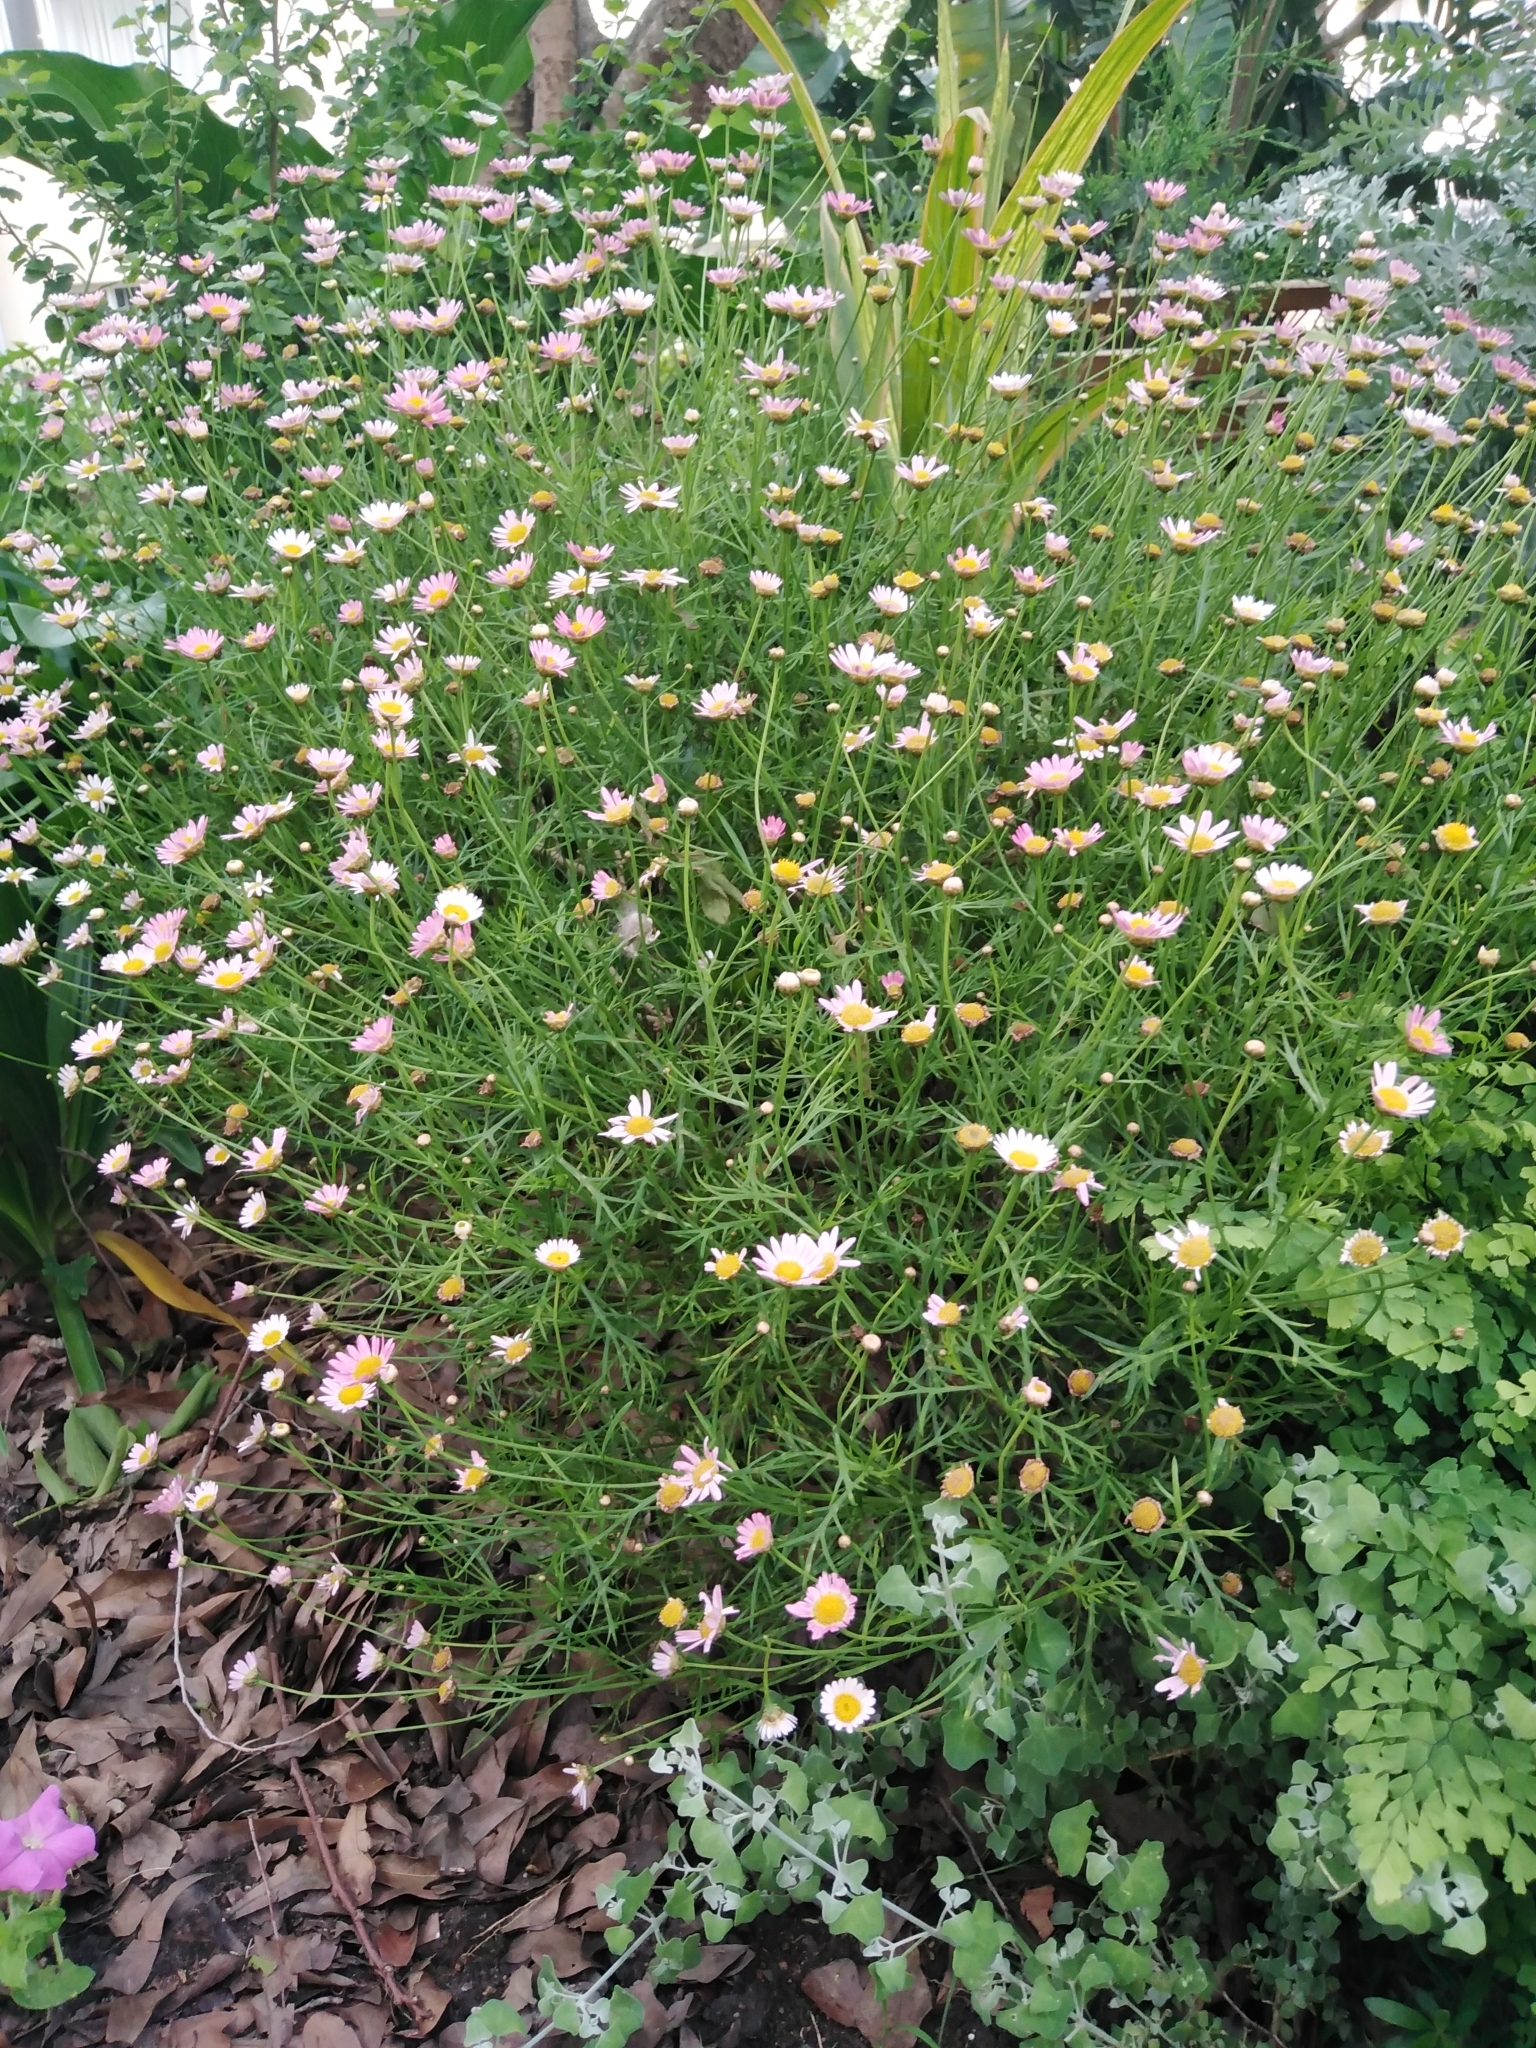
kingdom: Plantae
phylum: Tracheophyta
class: Magnoliopsida
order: Asterales
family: Asteraceae
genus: Argyranthemum
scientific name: Argyranthemum frutescens
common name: Paris daisy
